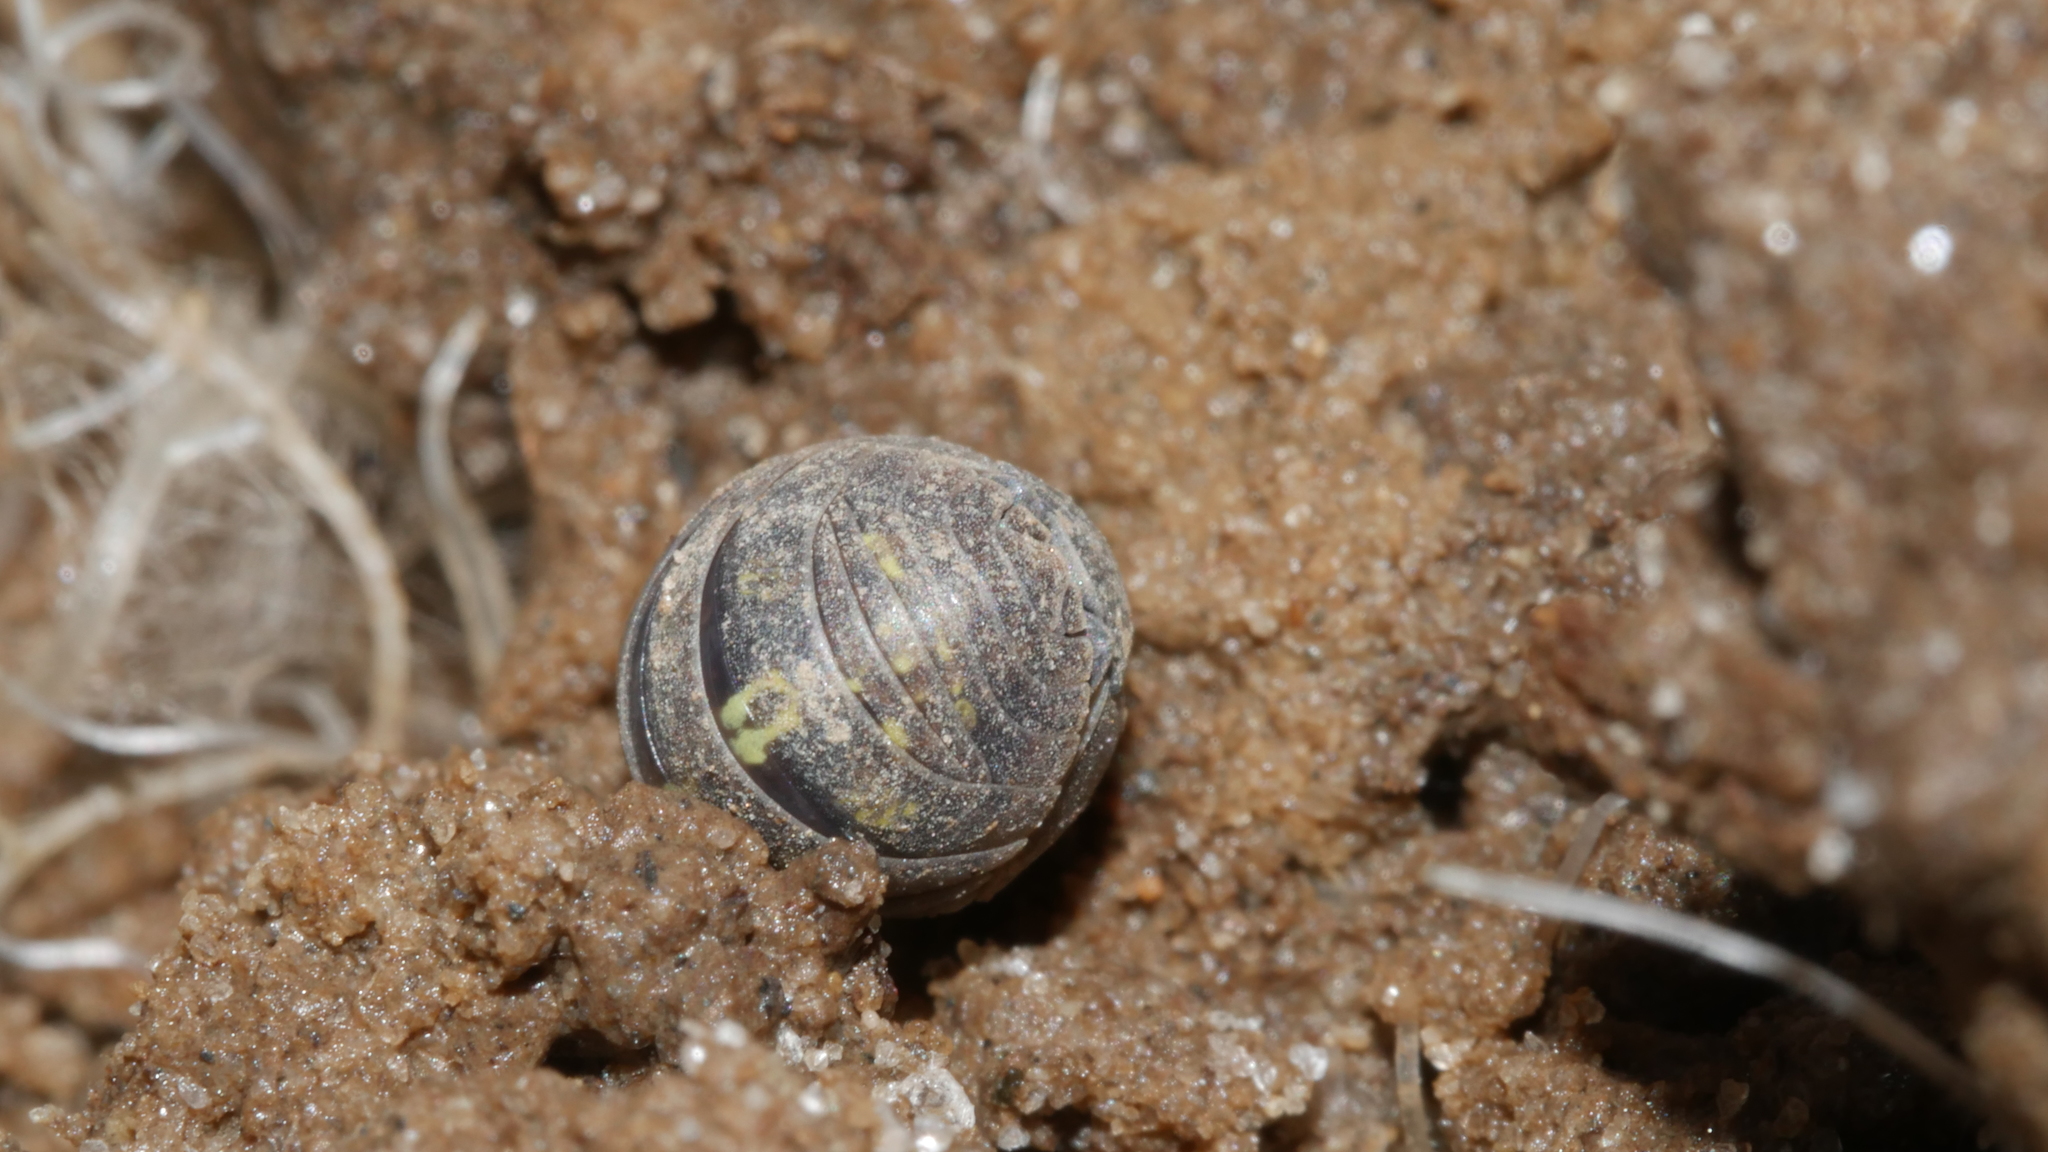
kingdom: Animalia
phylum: Arthropoda
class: Malacostraca
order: Isopoda
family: Armadillidiidae
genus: Armadillidium
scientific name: Armadillidium vulgare
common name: Common pill woodlouse
